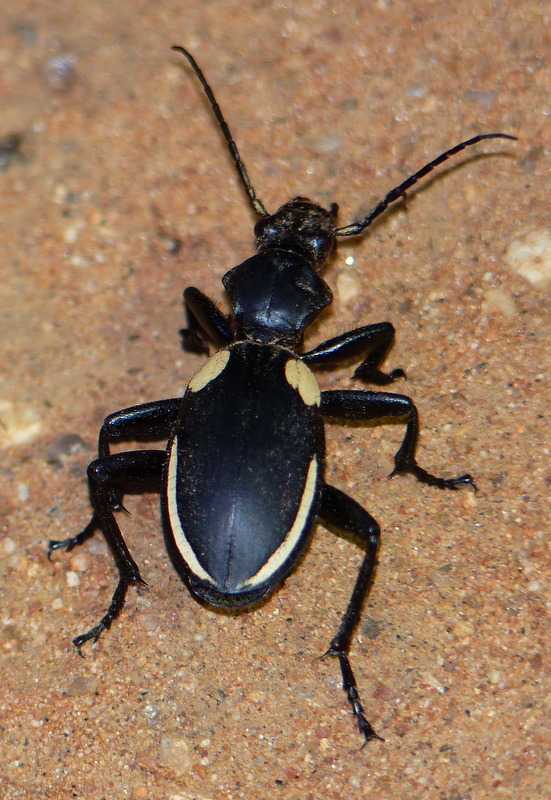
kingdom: Animalia
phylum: Arthropoda
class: Insecta
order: Coleoptera
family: Carabidae
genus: Anthia
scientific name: Anthia
